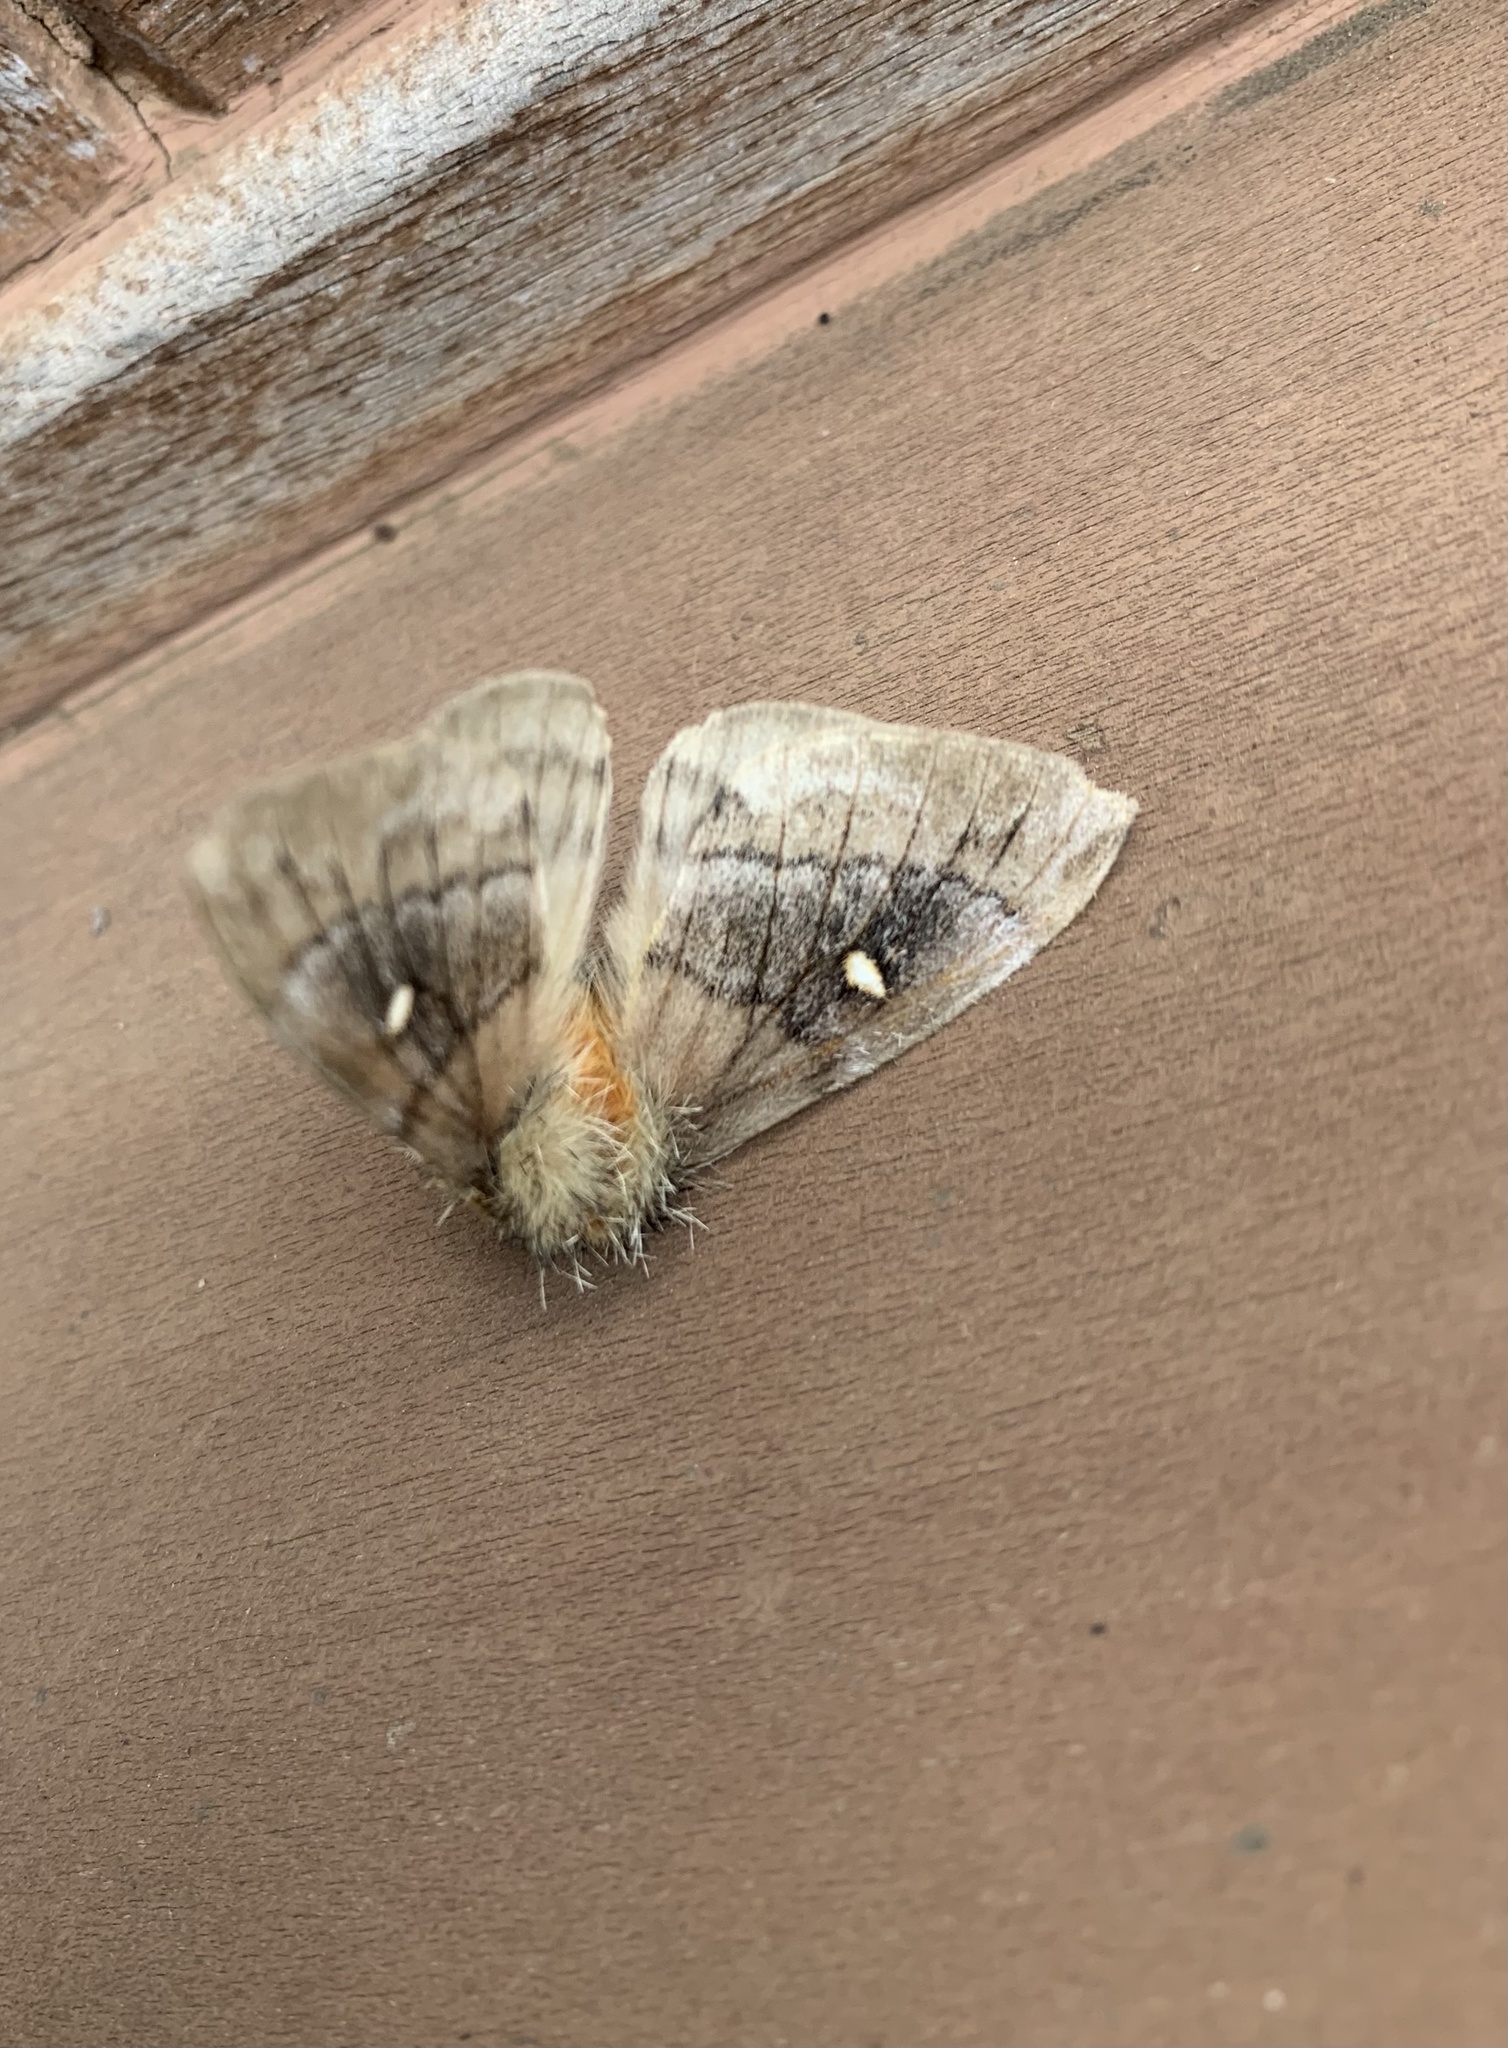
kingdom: Animalia
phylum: Arthropoda
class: Insecta
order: Lepidoptera
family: Saturniidae
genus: Ormiscodes
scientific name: Ormiscodes amphinome
